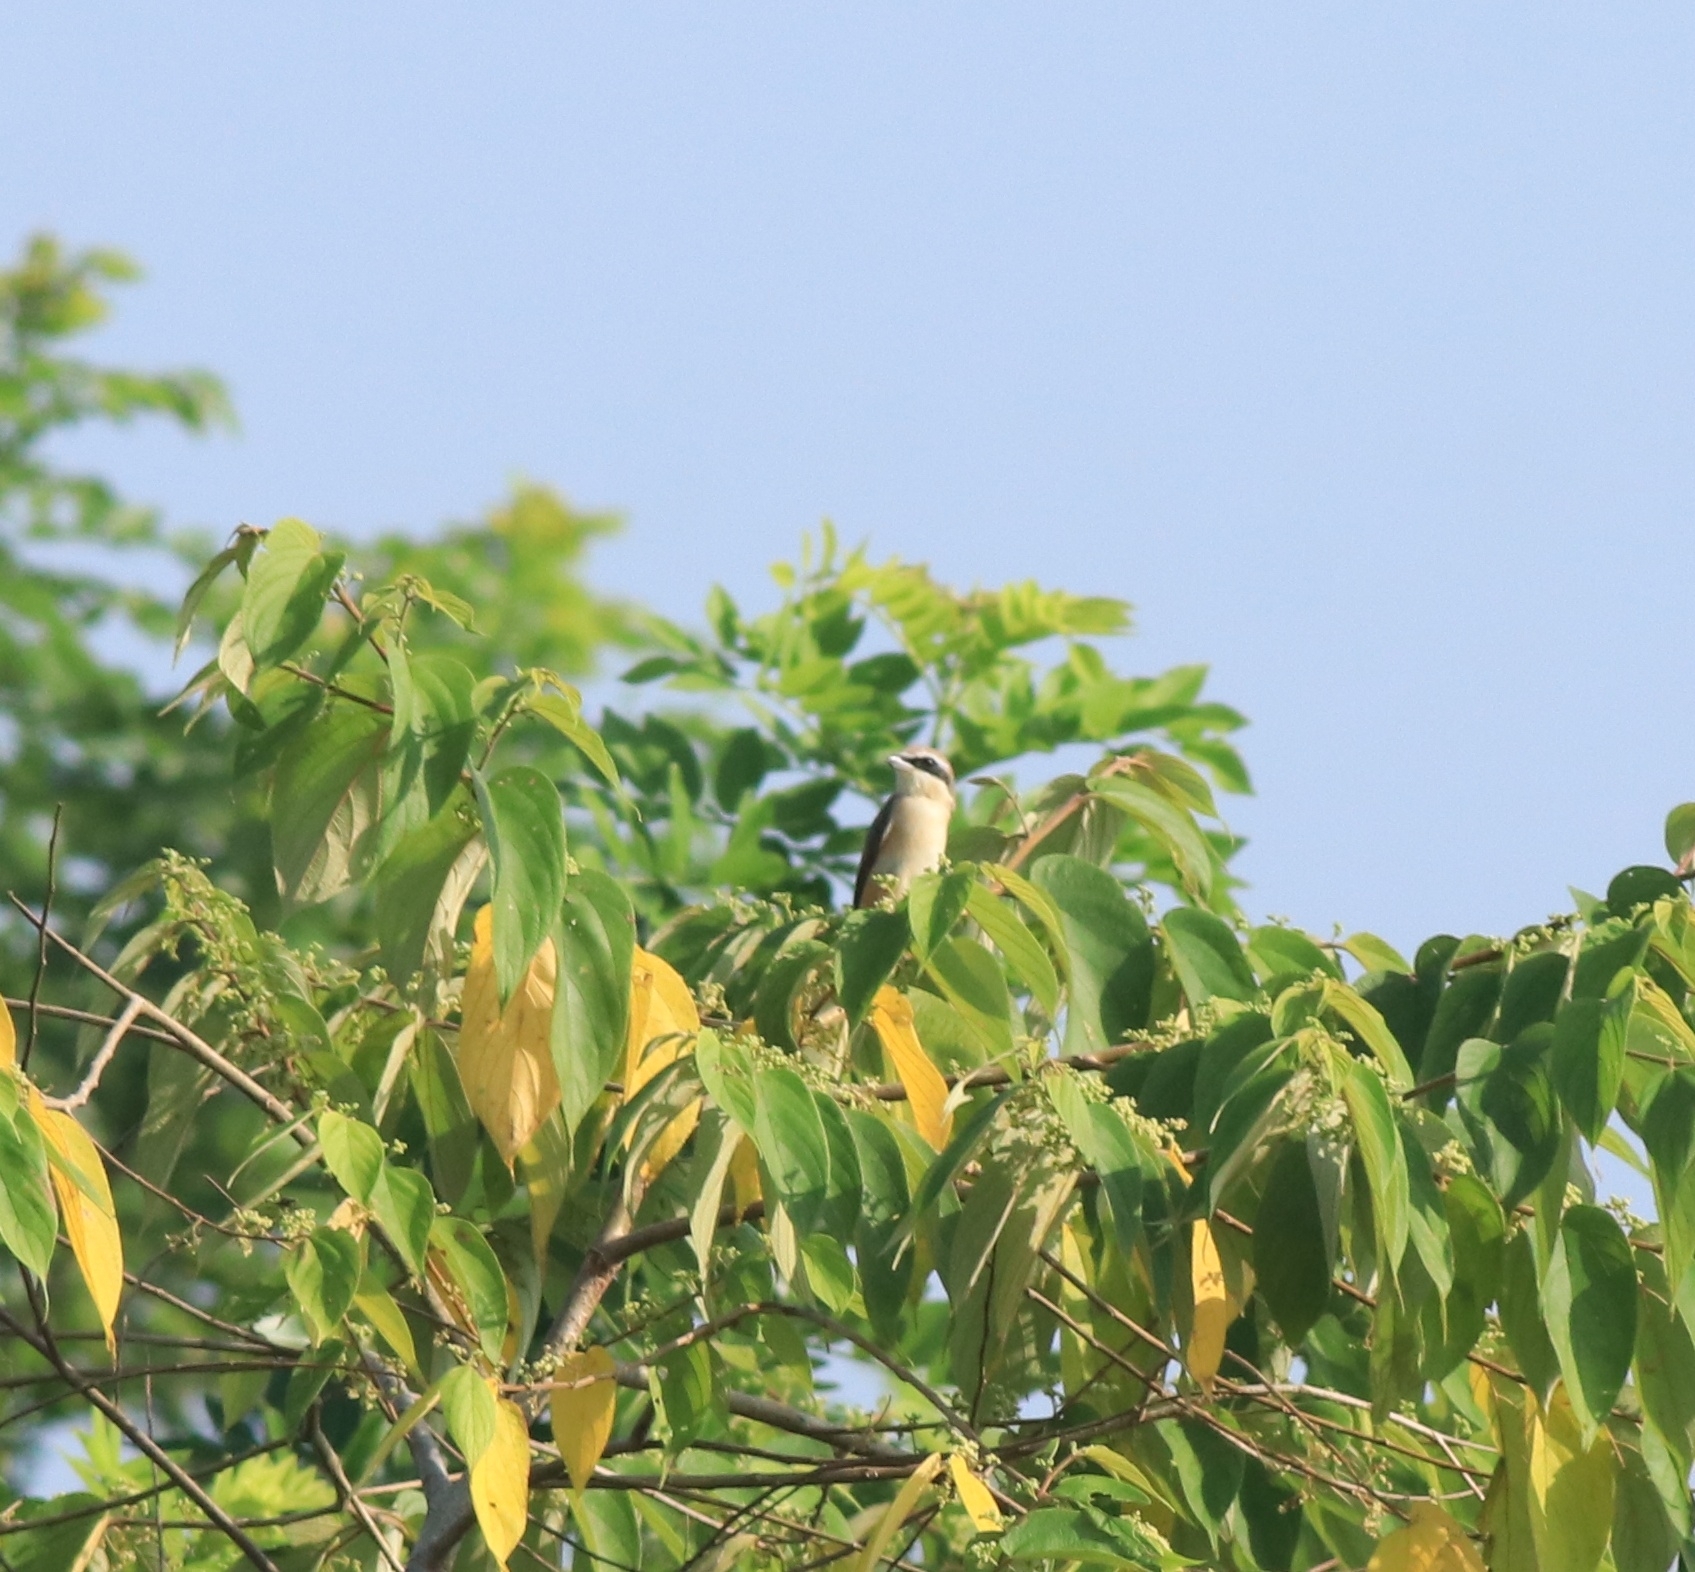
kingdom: Animalia
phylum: Chordata
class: Aves
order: Passeriformes
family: Laniidae
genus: Lanius
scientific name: Lanius cristatus
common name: Brown shrike
